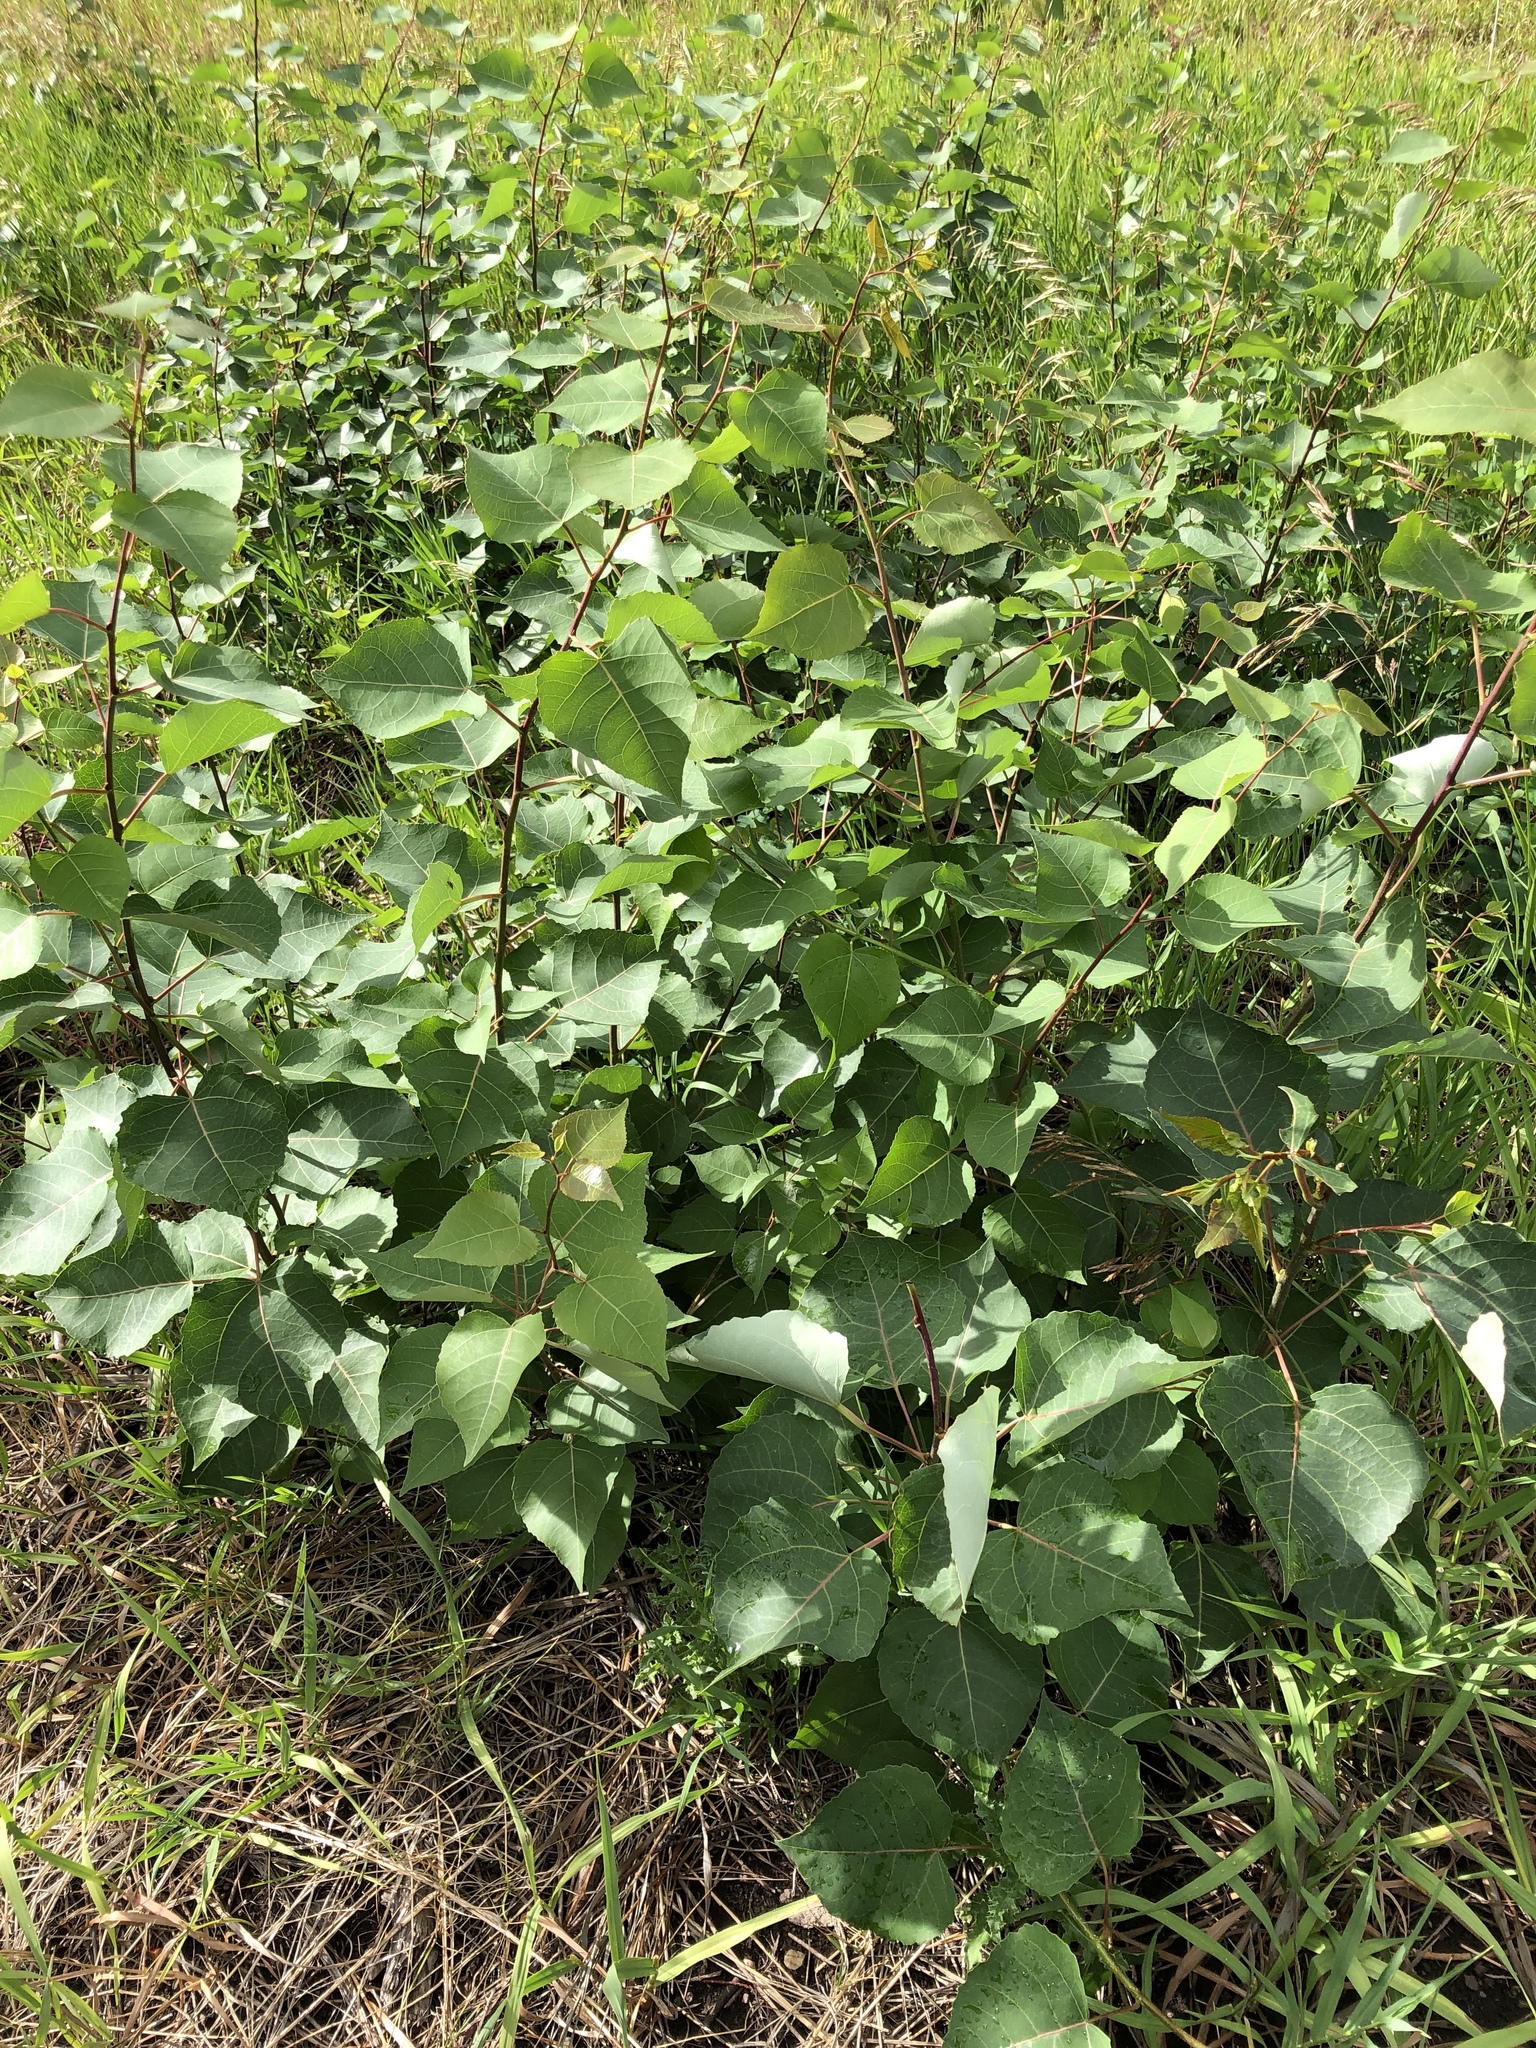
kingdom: Plantae
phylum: Tracheophyta
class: Magnoliopsida
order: Malpighiales
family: Salicaceae
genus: Populus
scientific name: Populus tremuloides
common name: Quaking aspen
